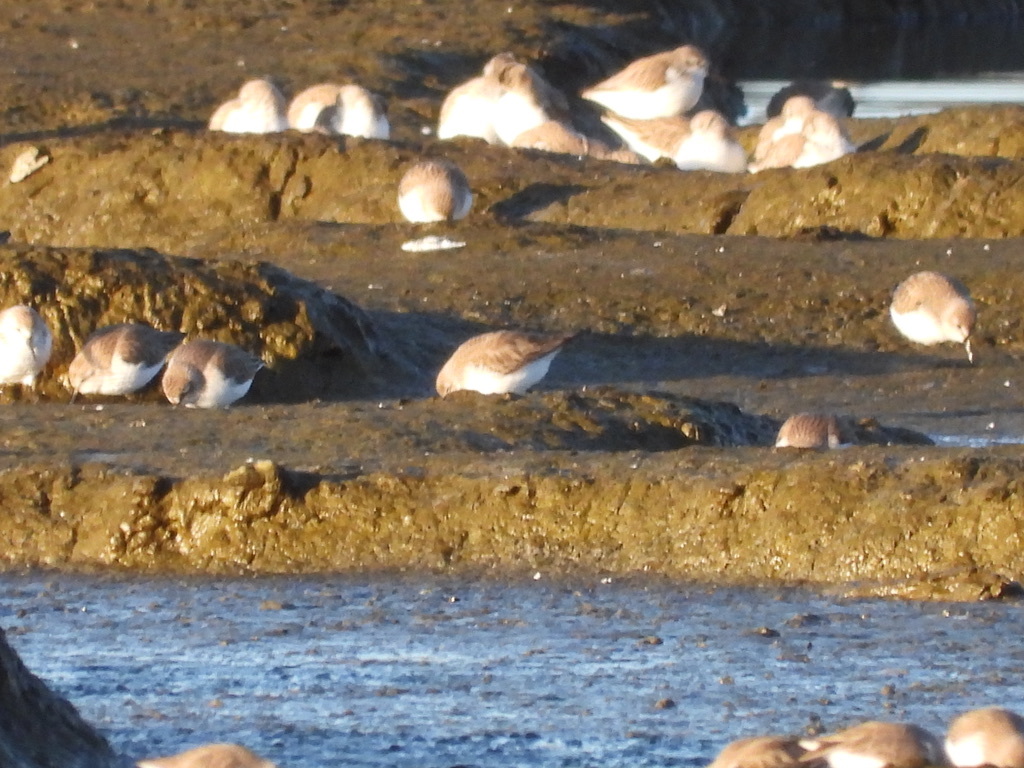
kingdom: Animalia
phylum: Chordata
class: Aves
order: Charadriiformes
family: Scolopacidae
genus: Calidris
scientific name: Calidris alpina
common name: Dunlin
